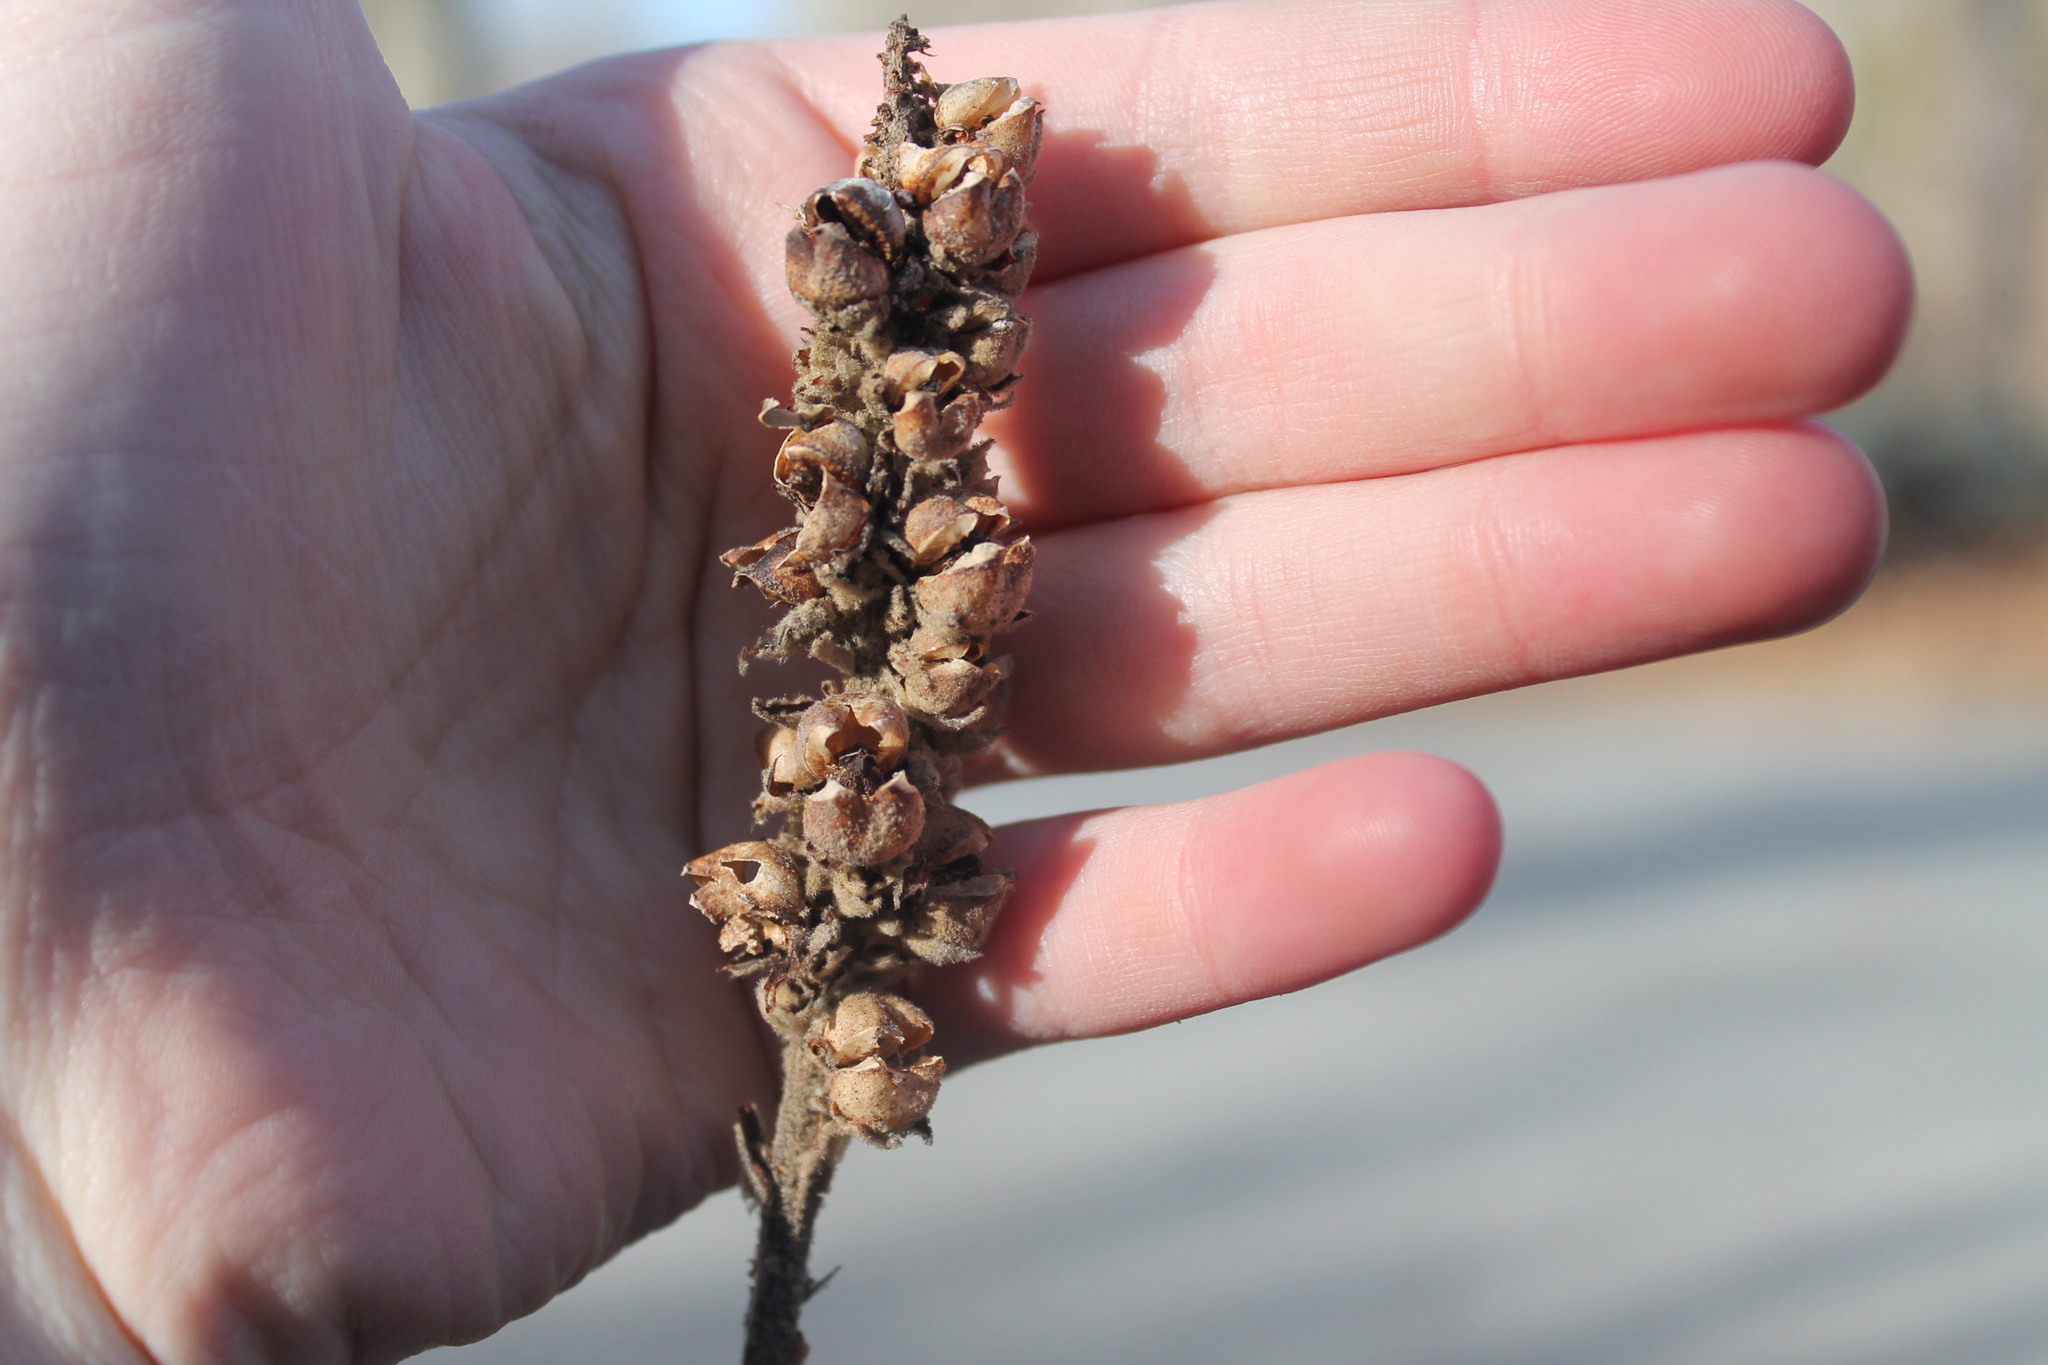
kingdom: Plantae
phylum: Tracheophyta
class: Magnoliopsida
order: Lamiales
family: Scrophulariaceae
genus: Verbascum
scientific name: Verbascum thapsus
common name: Common mullein
